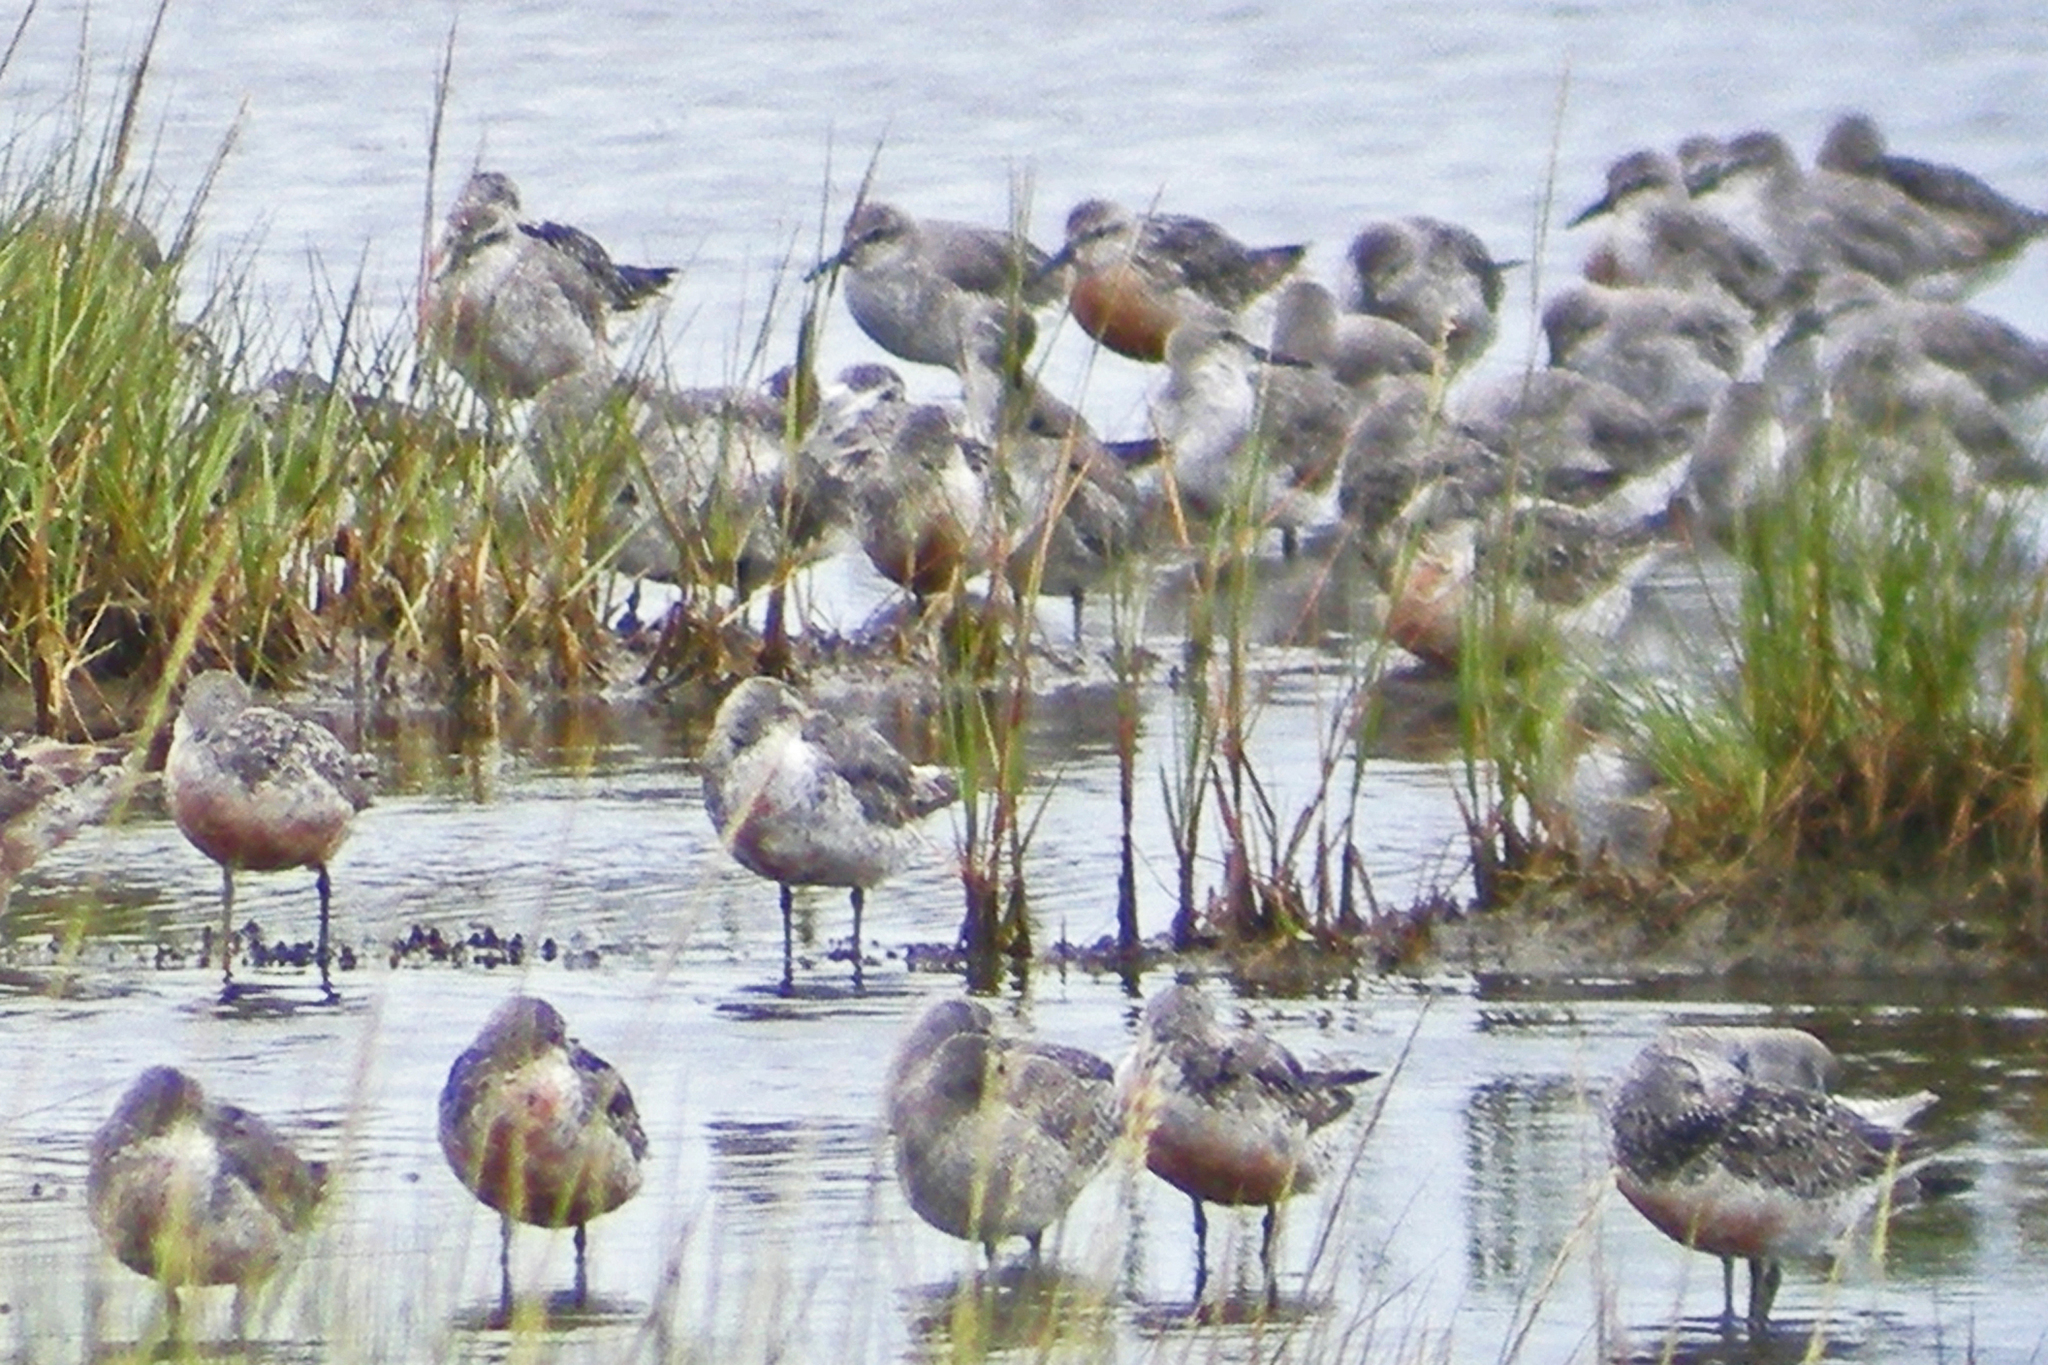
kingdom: Animalia
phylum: Chordata
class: Aves
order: Charadriiformes
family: Scolopacidae
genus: Calidris
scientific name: Calidris canutus
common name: Red knot
